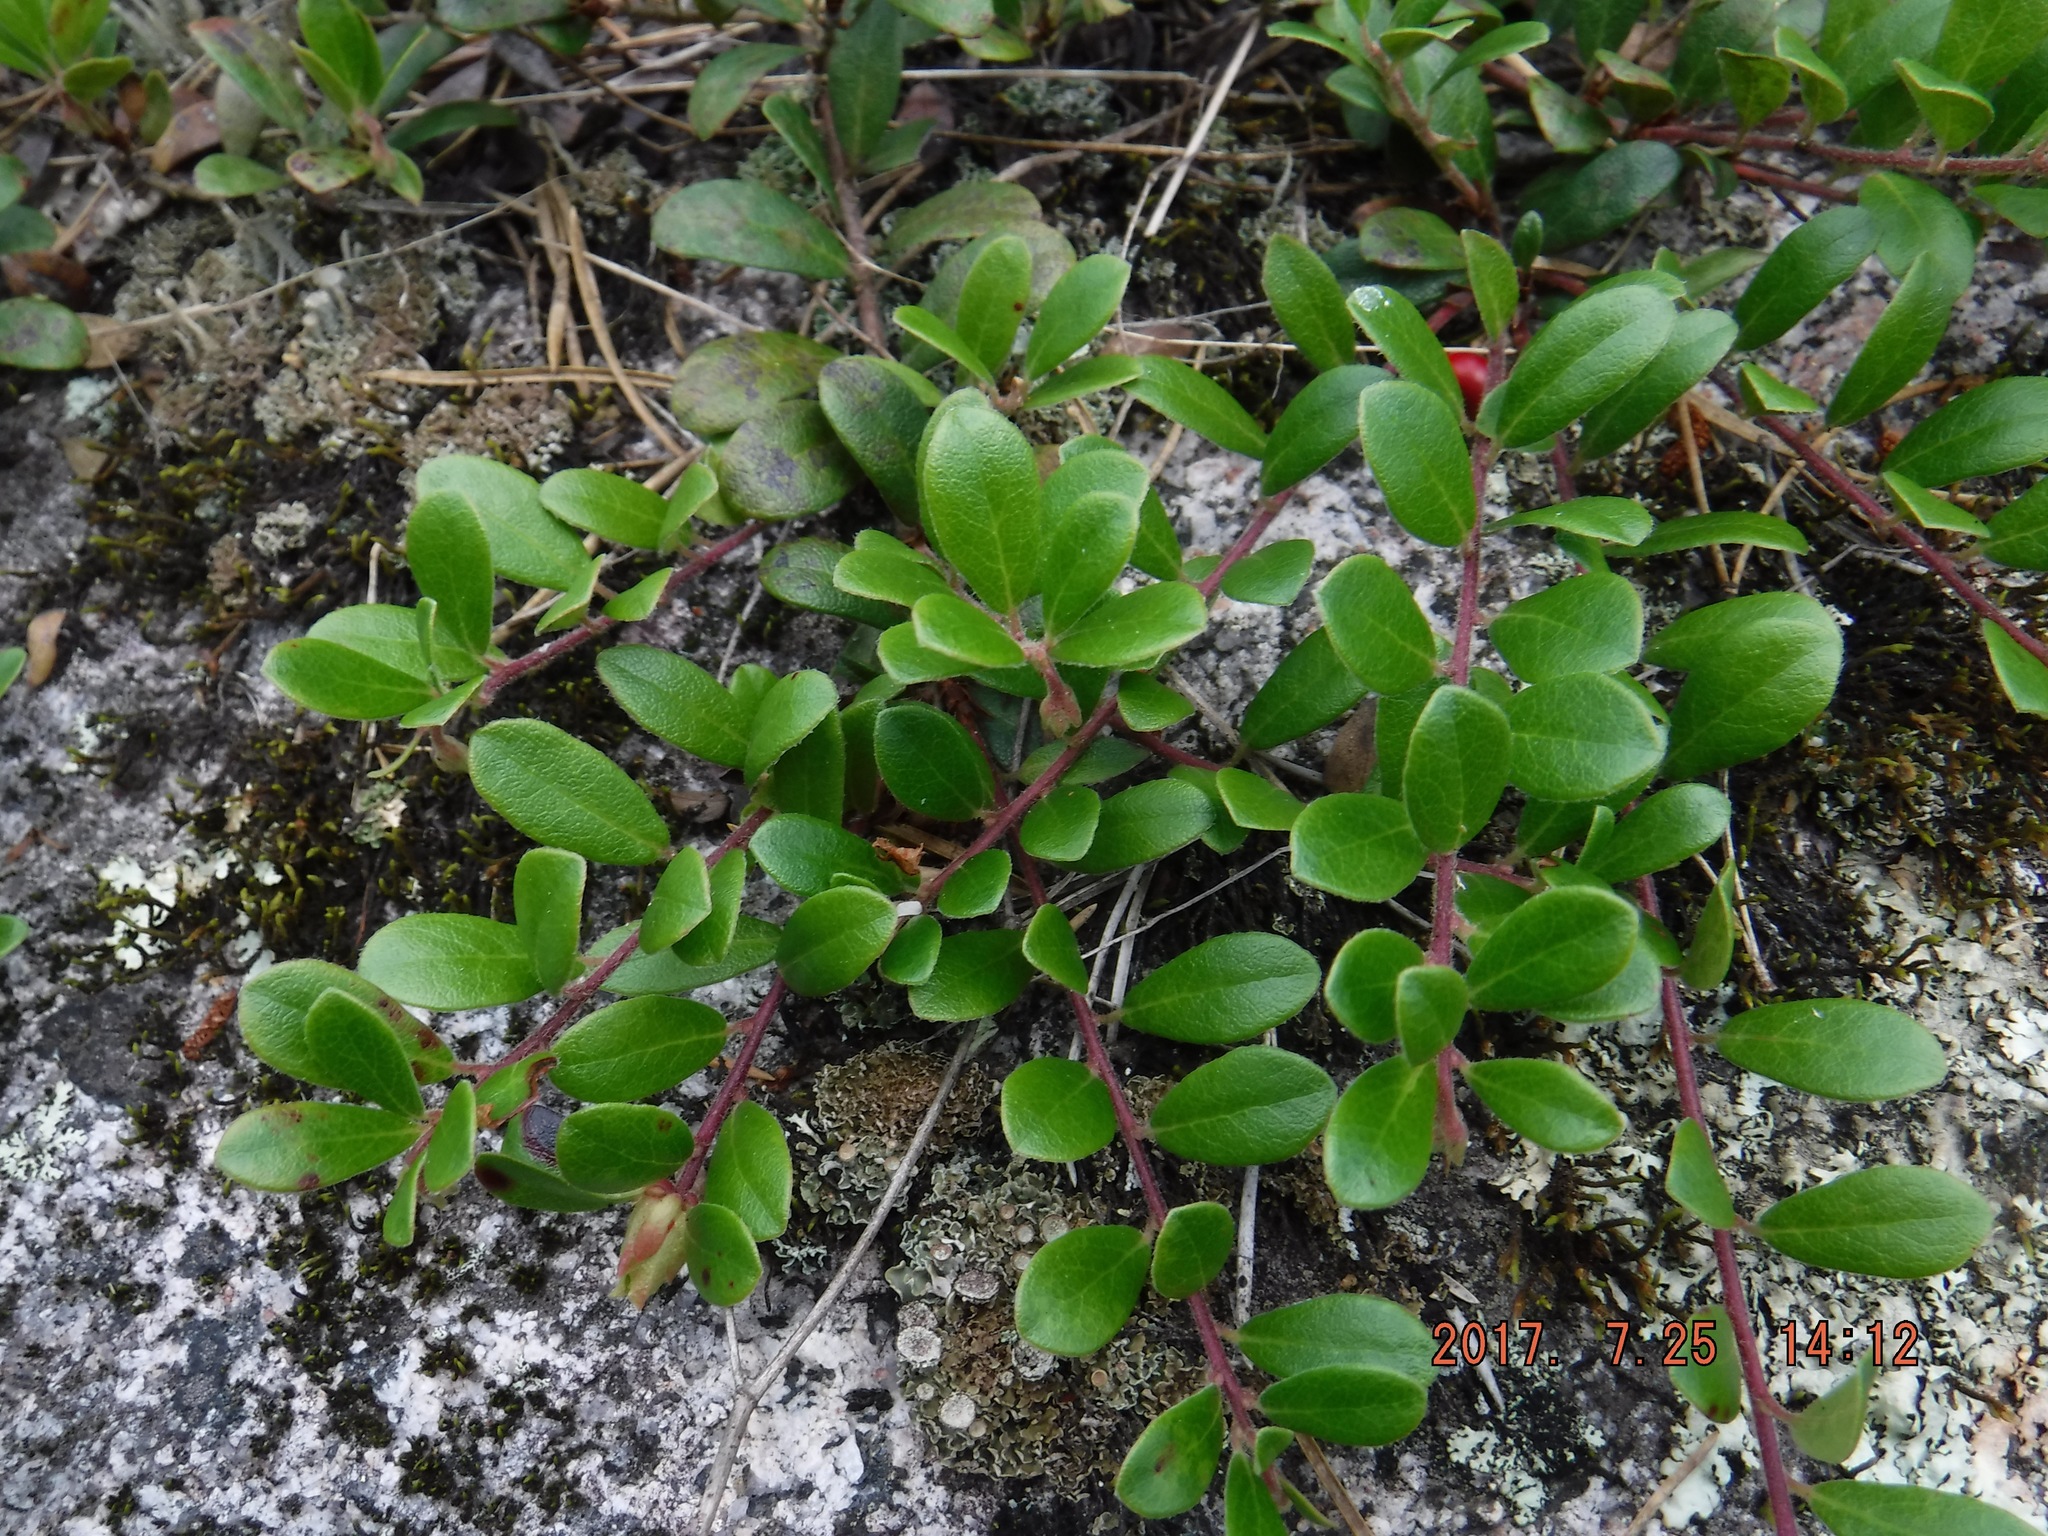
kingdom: Plantae
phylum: Tracheophyta
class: Magnoliopsida
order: Ericales
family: Ericaceae
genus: Arctostaphylos
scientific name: Arctostaphylos uva-ursi
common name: Bearberry
